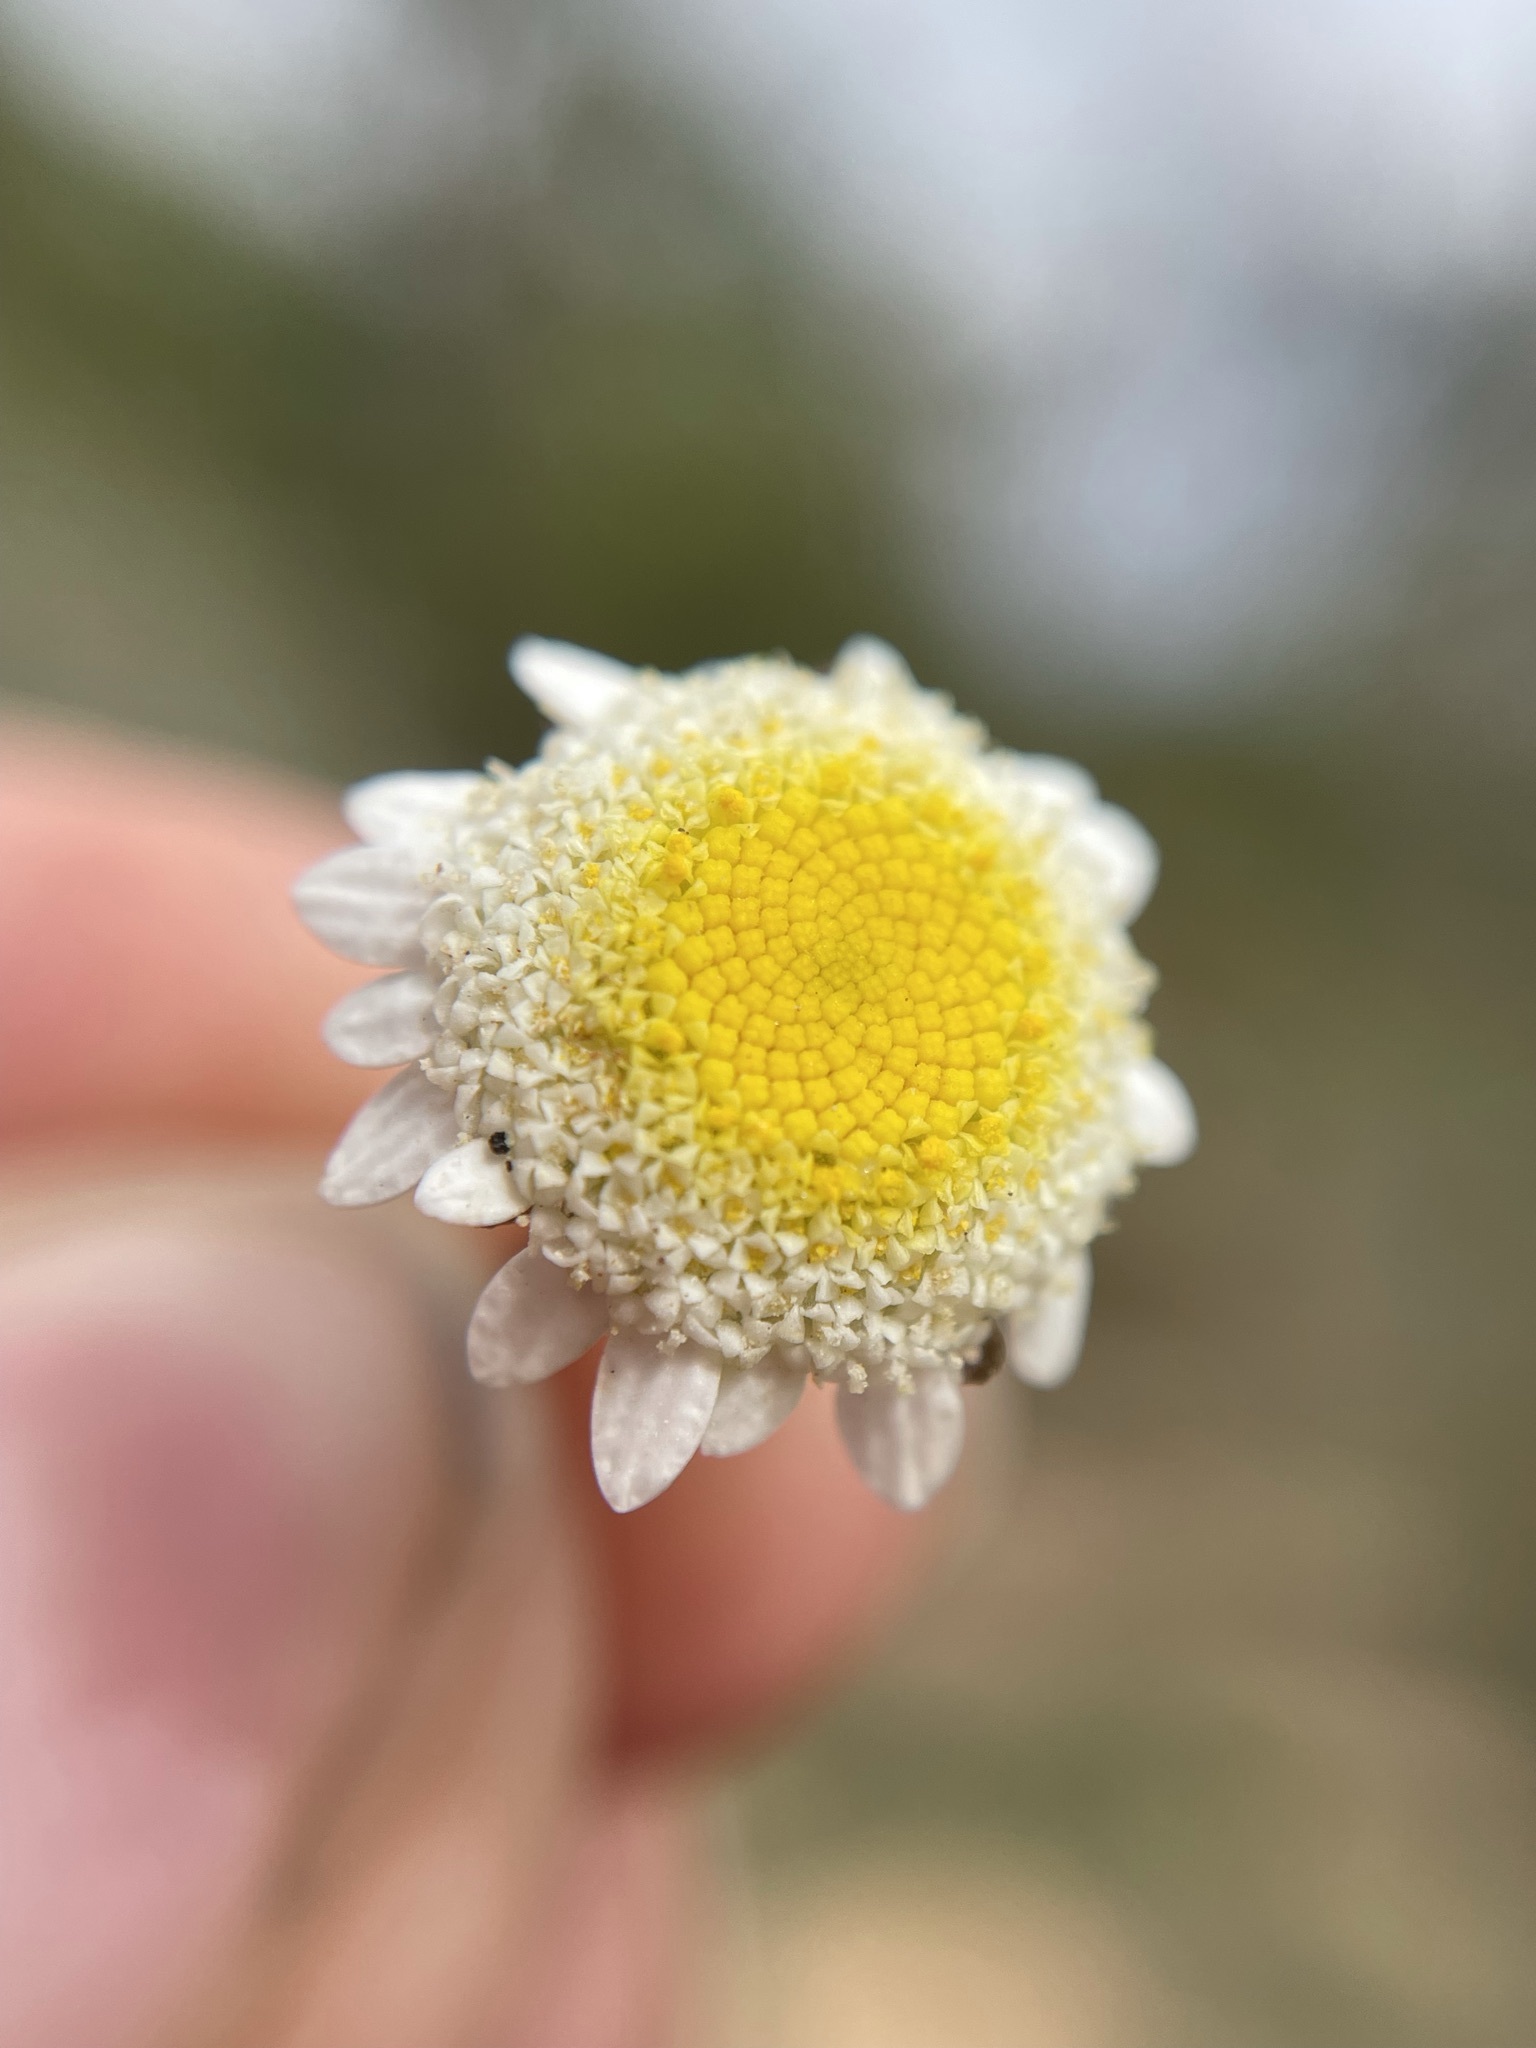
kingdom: Plantae
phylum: Tracheophyta
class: Magnoliopsida
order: Asterales
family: Asteraceae
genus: Cotula
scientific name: Cotula turbinata
